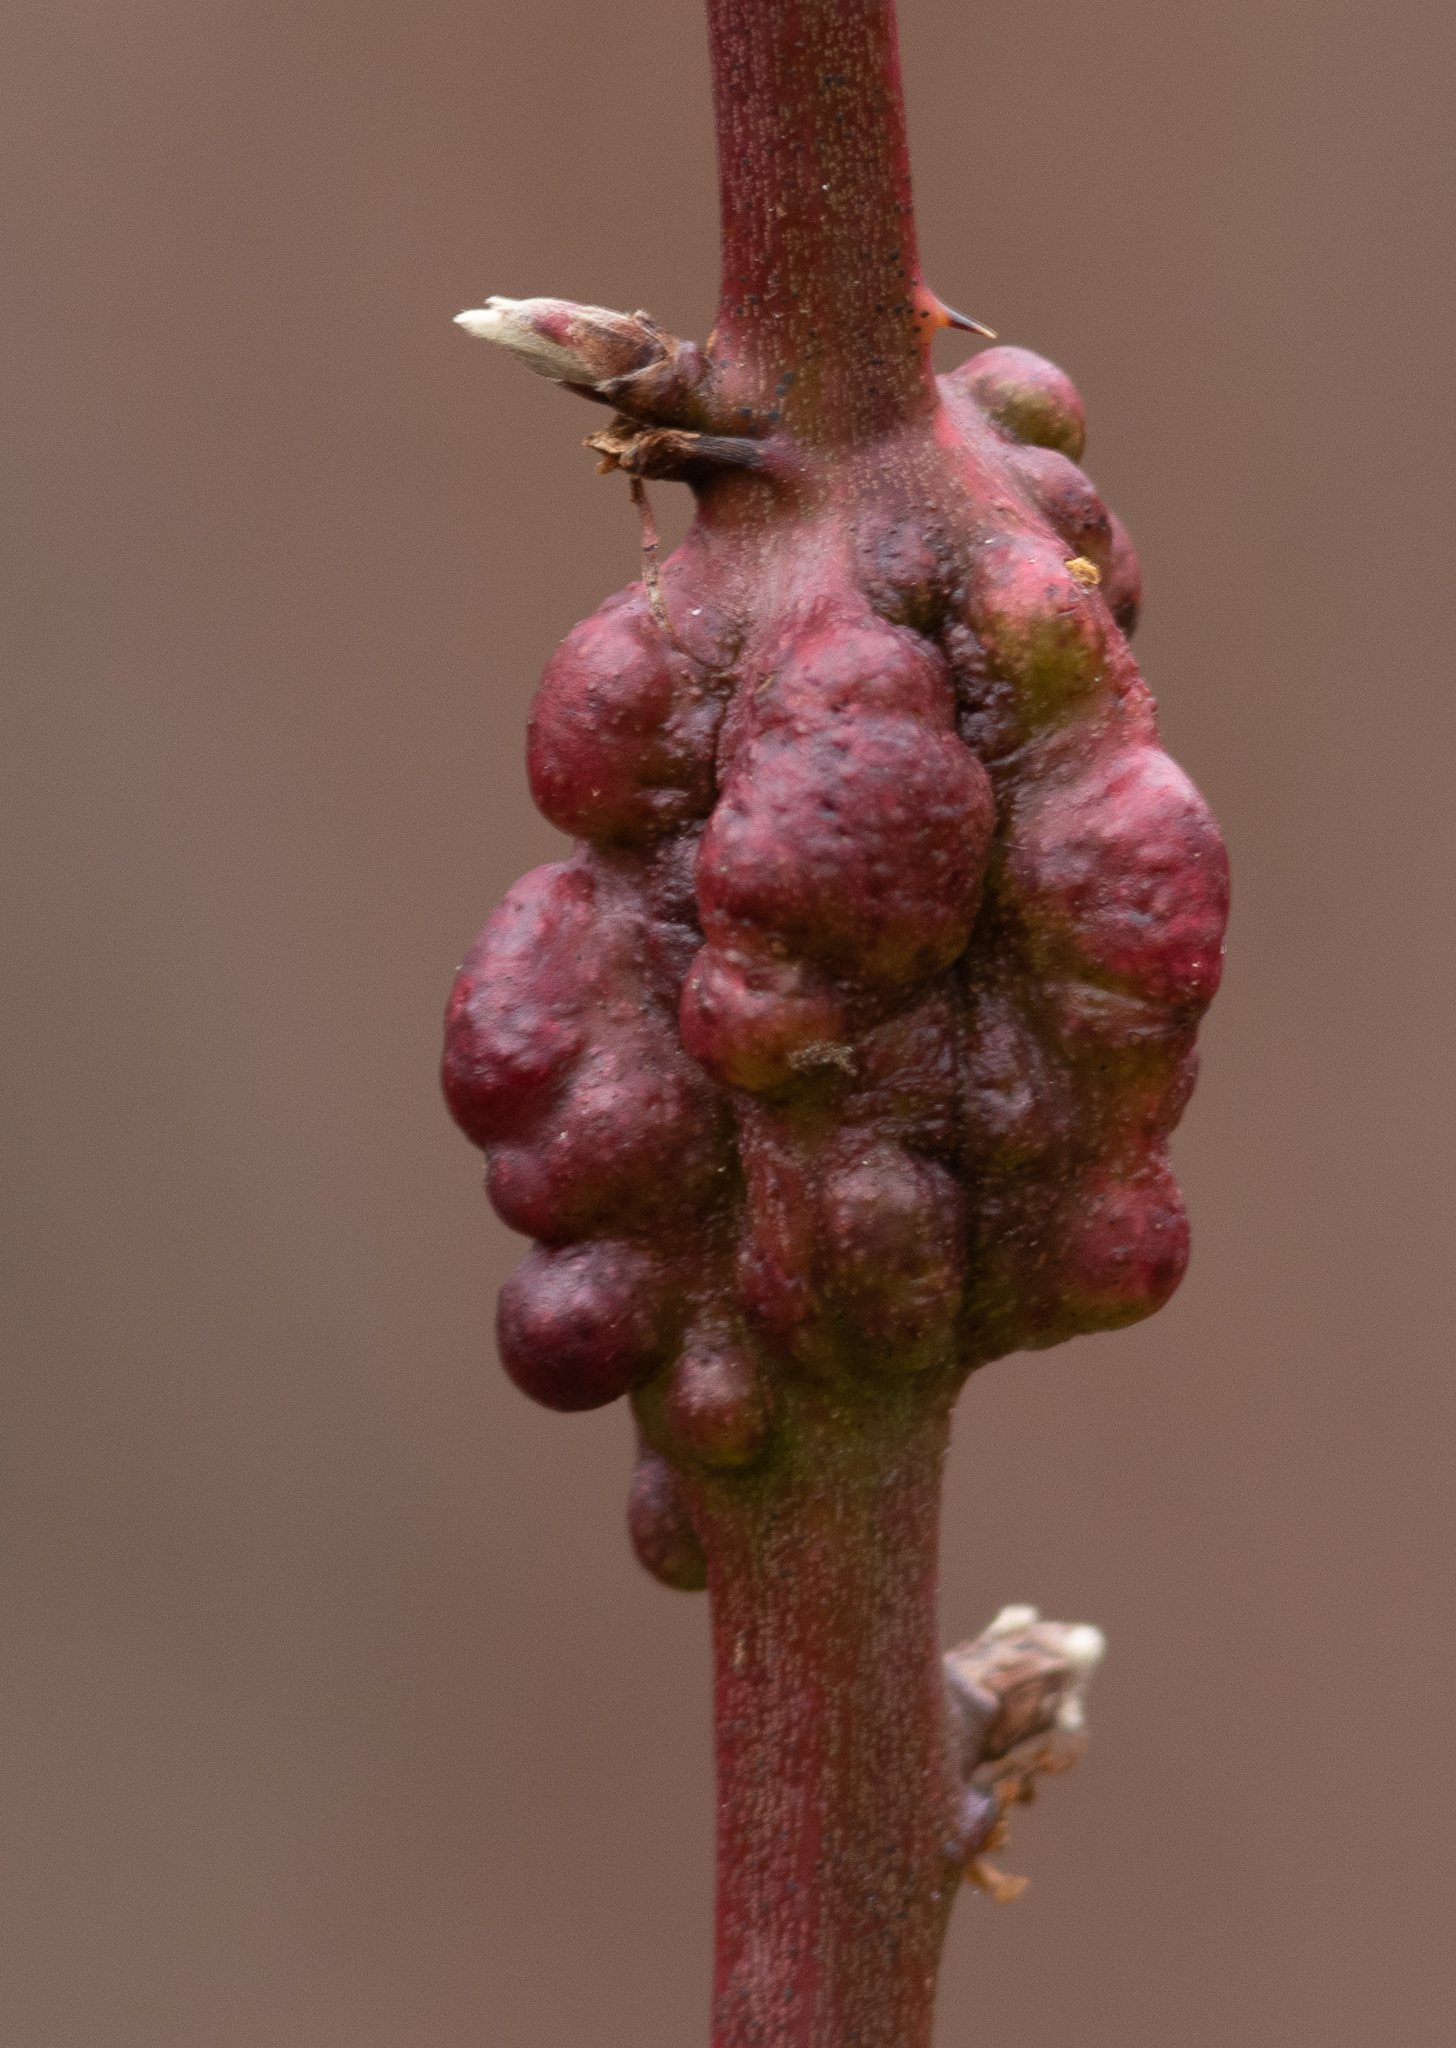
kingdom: Animalia
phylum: Arthropoda
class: Insecta
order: Hymenoptera
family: Cynipidae
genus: Diastrophus
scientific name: Diastrophus
